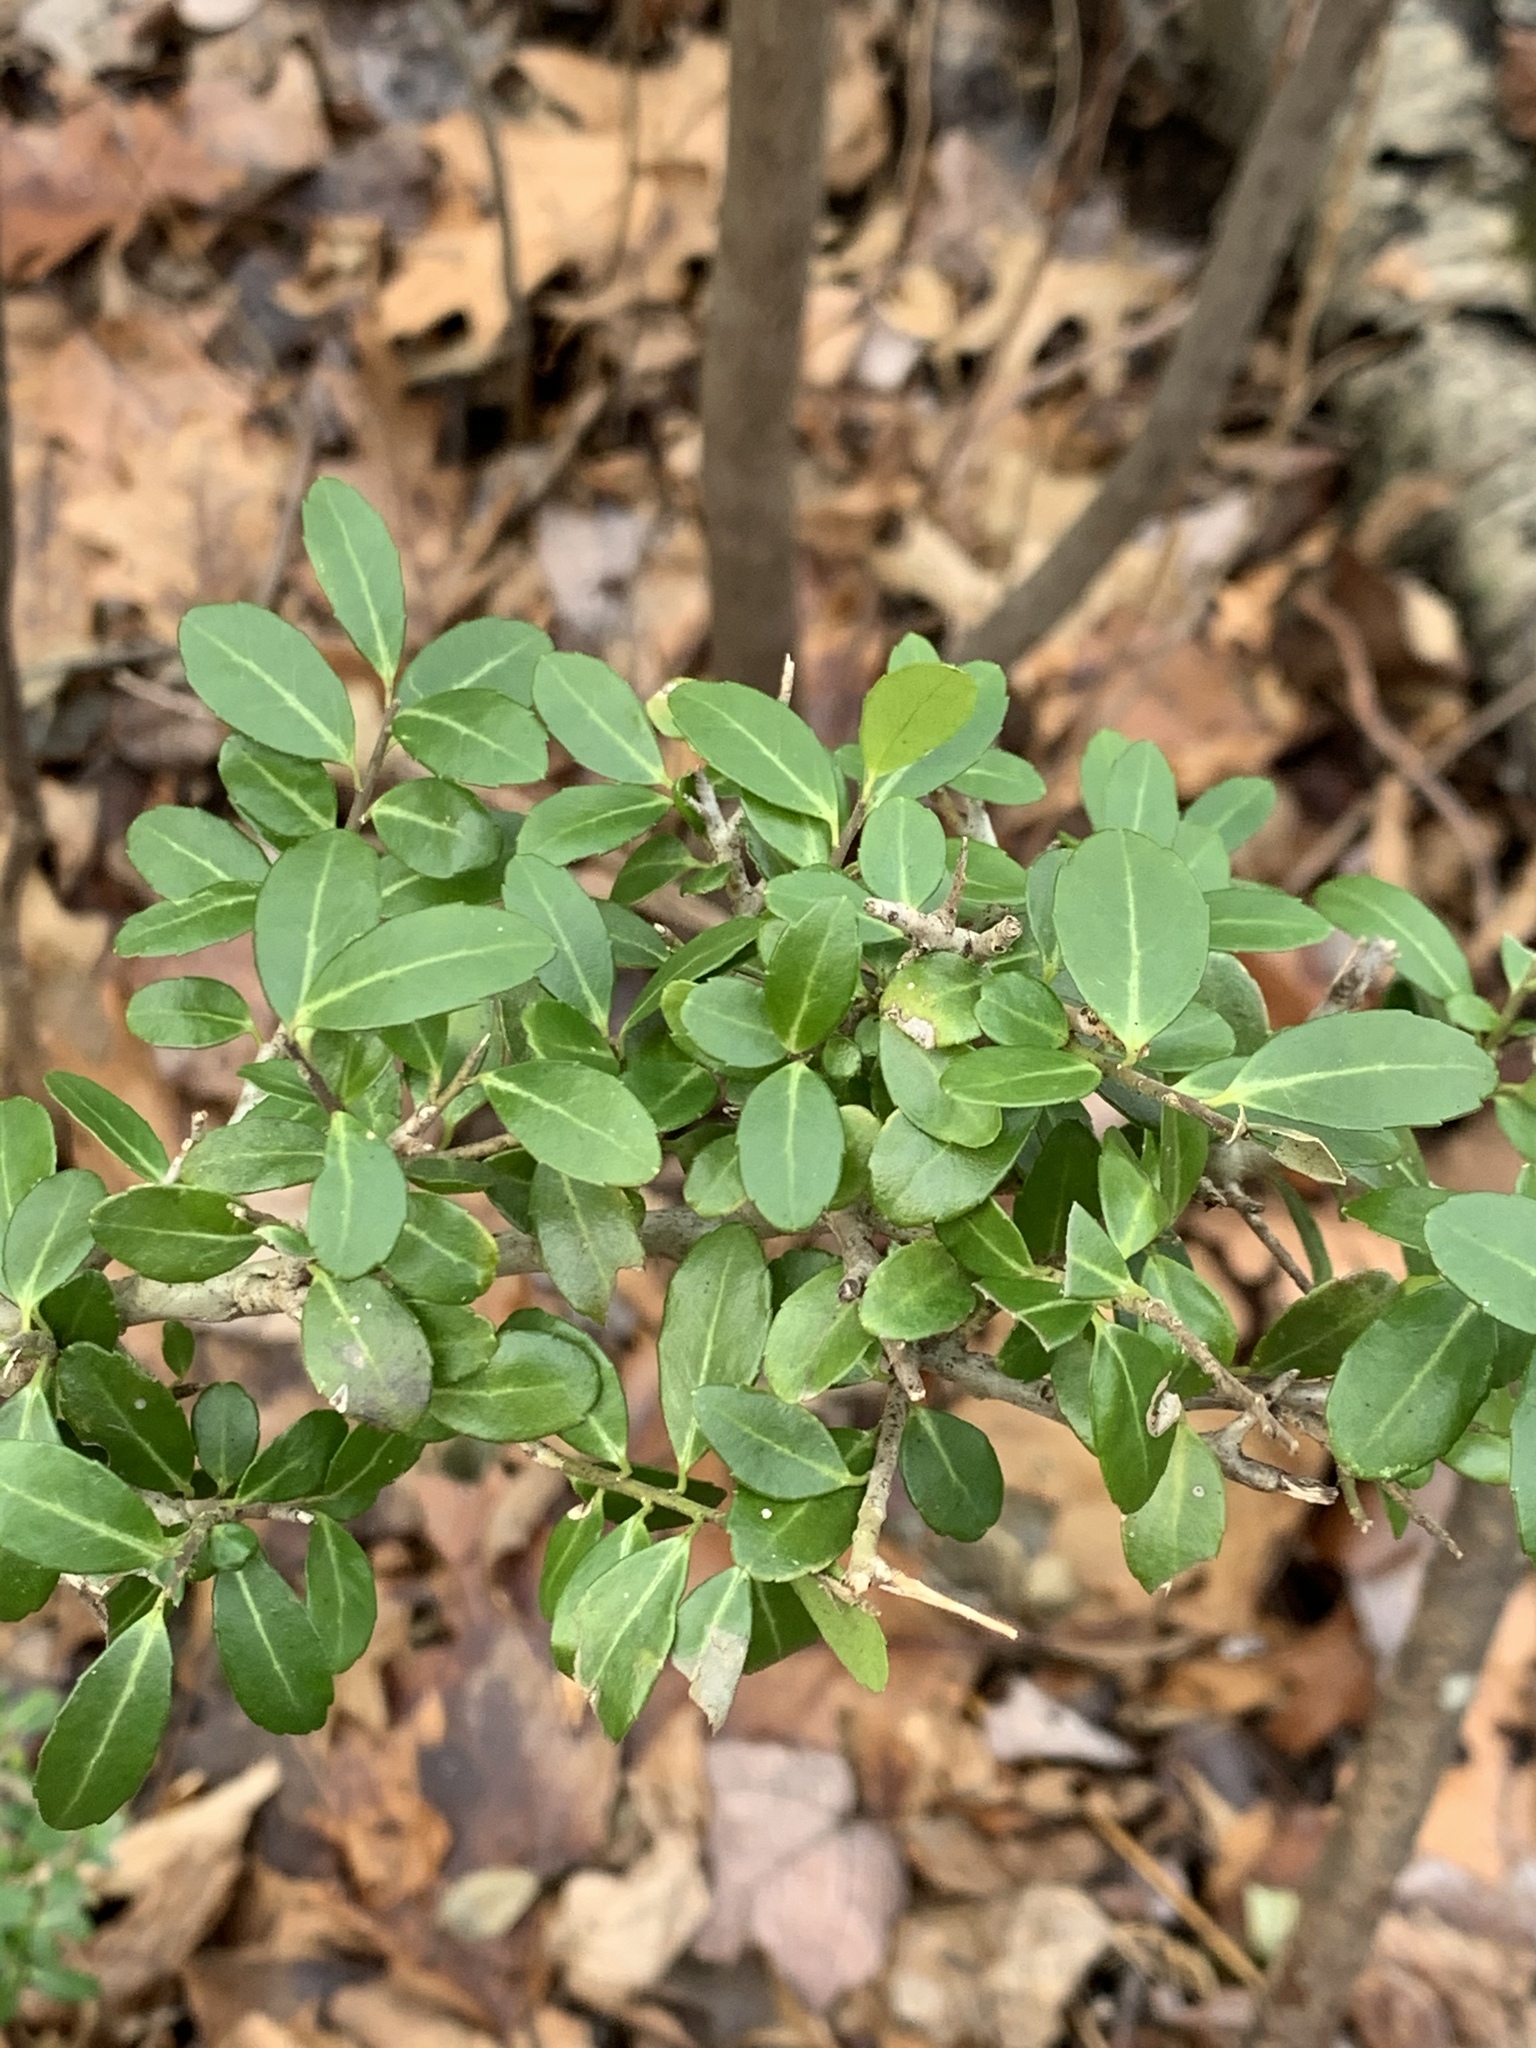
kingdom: Plantae
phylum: Tracheophyta
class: Magnoliopsida
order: Aquifoliales
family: Aquifoliaceae
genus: Ilex
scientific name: Ilex crenata
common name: Japanese holly
